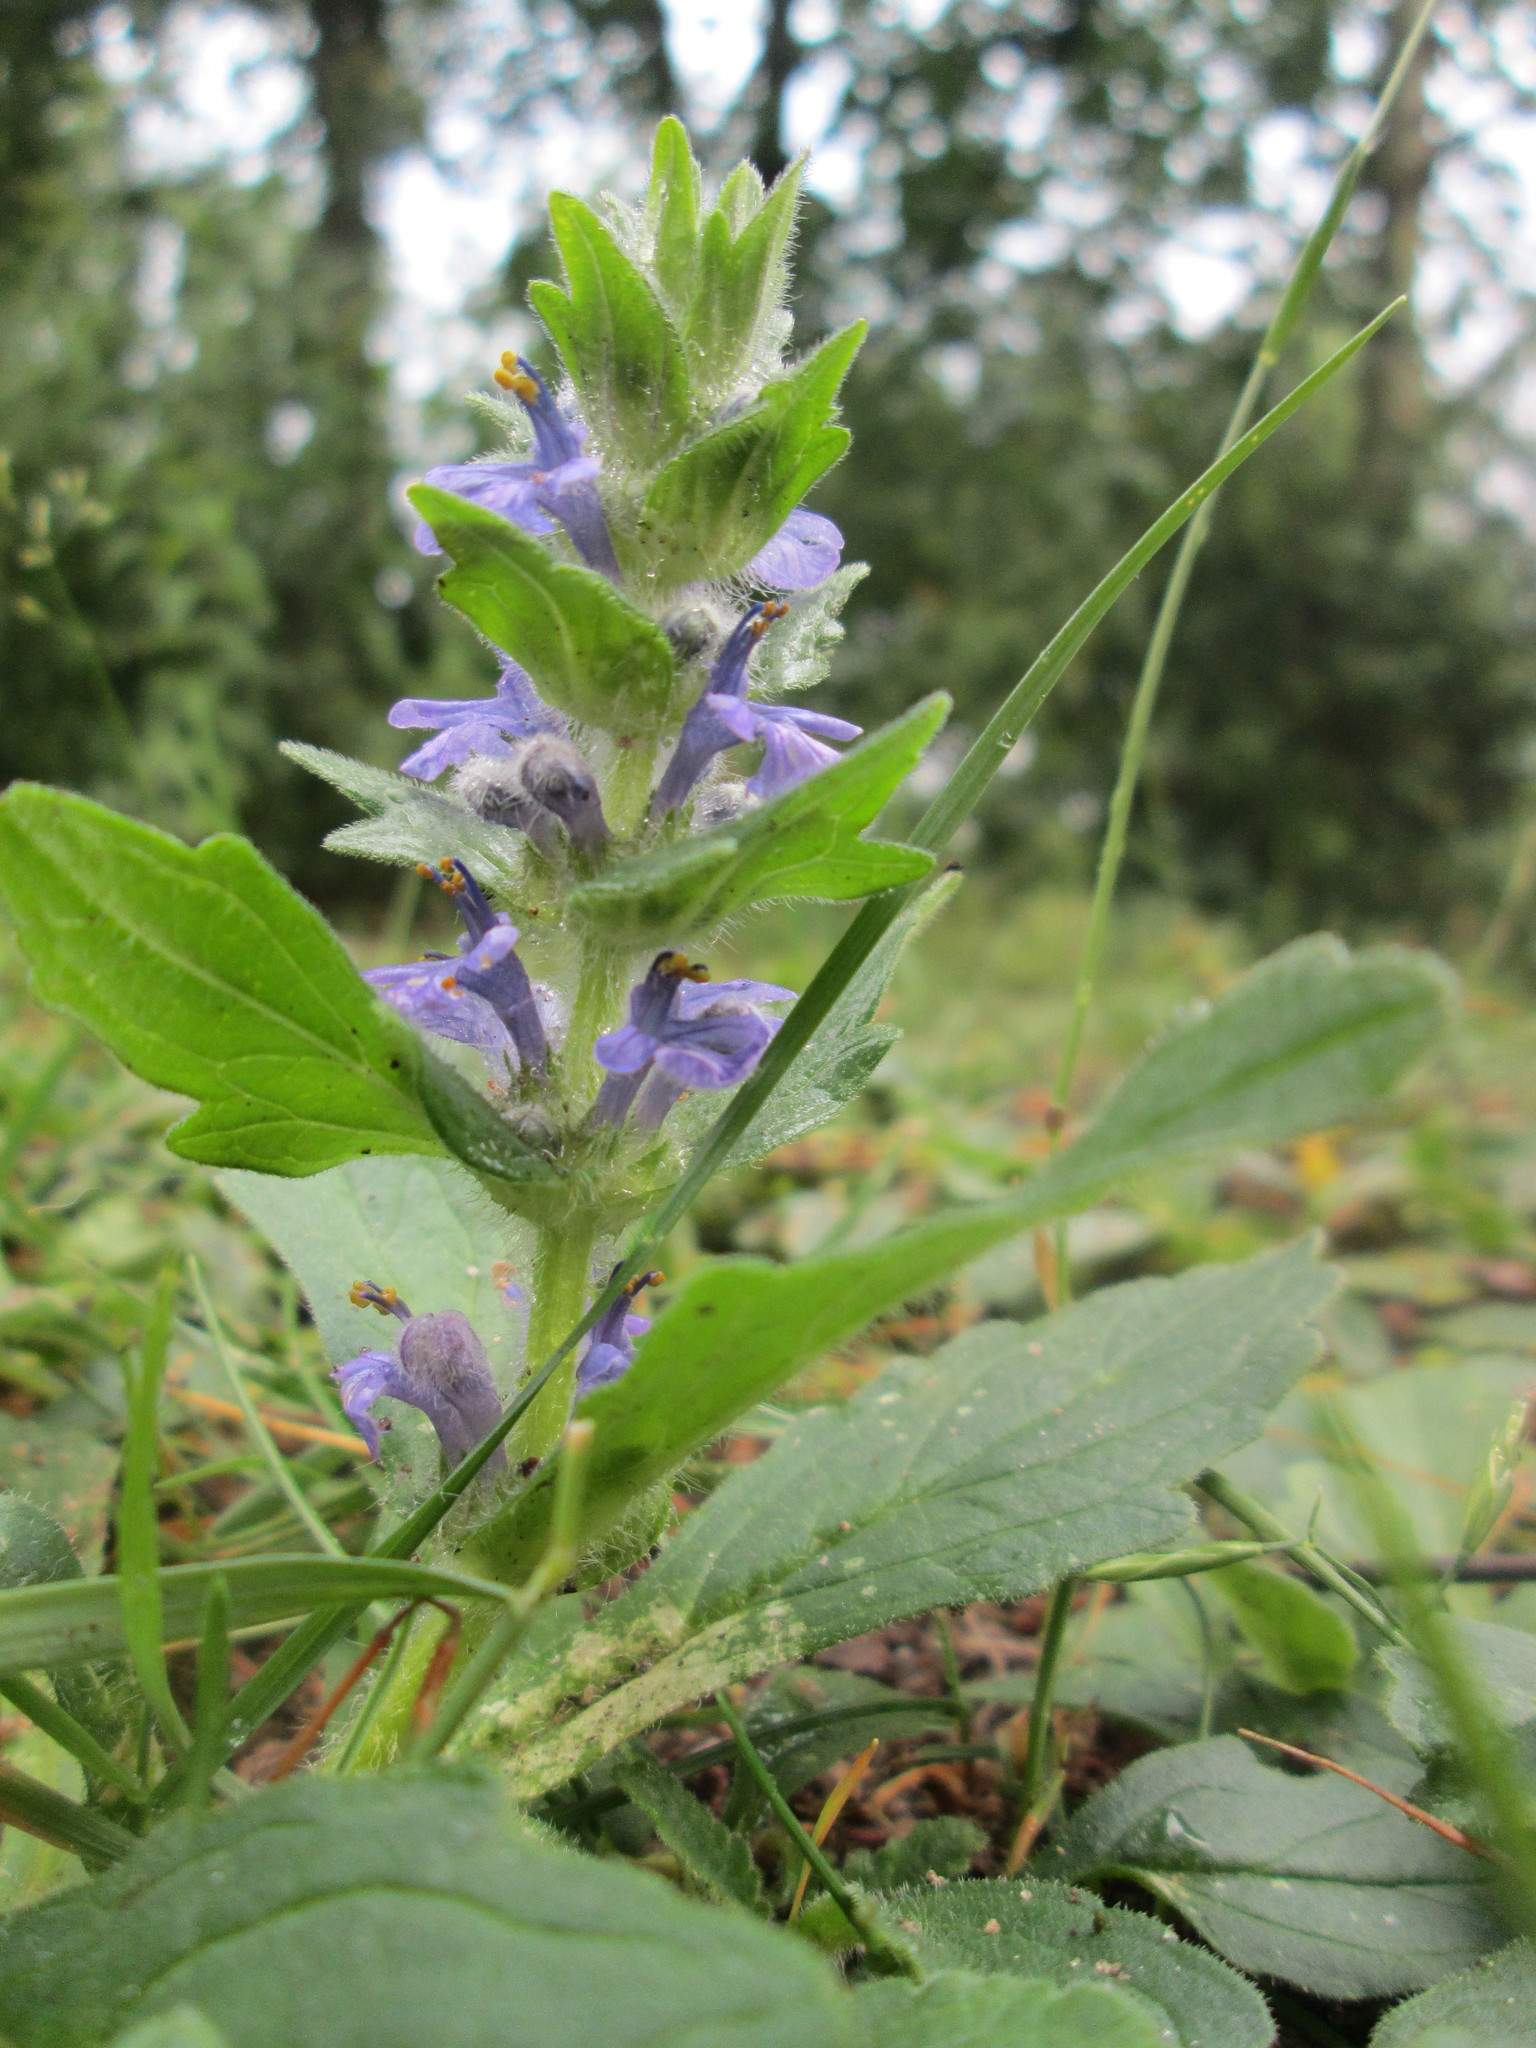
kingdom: Plantae
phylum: Tracheophyta
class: Magnoliopsida
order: Lamiales
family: Lamiaceae
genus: Ajuga
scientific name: Ajuga genevensis
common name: Blue bugle
